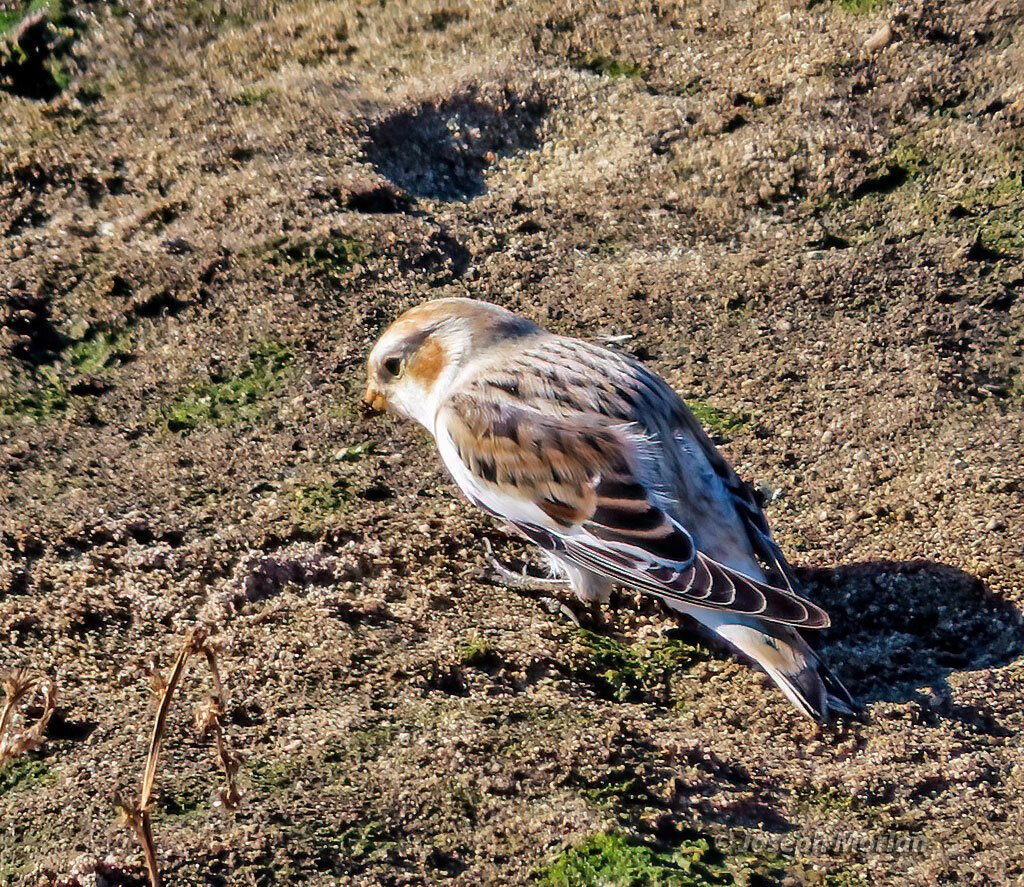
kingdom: Animalia
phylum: Chordata
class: Aves
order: Passeriformes
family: Calcariidae
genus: Plectrophenax
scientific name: Plectrophenax nivalis
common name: Snow bunting
